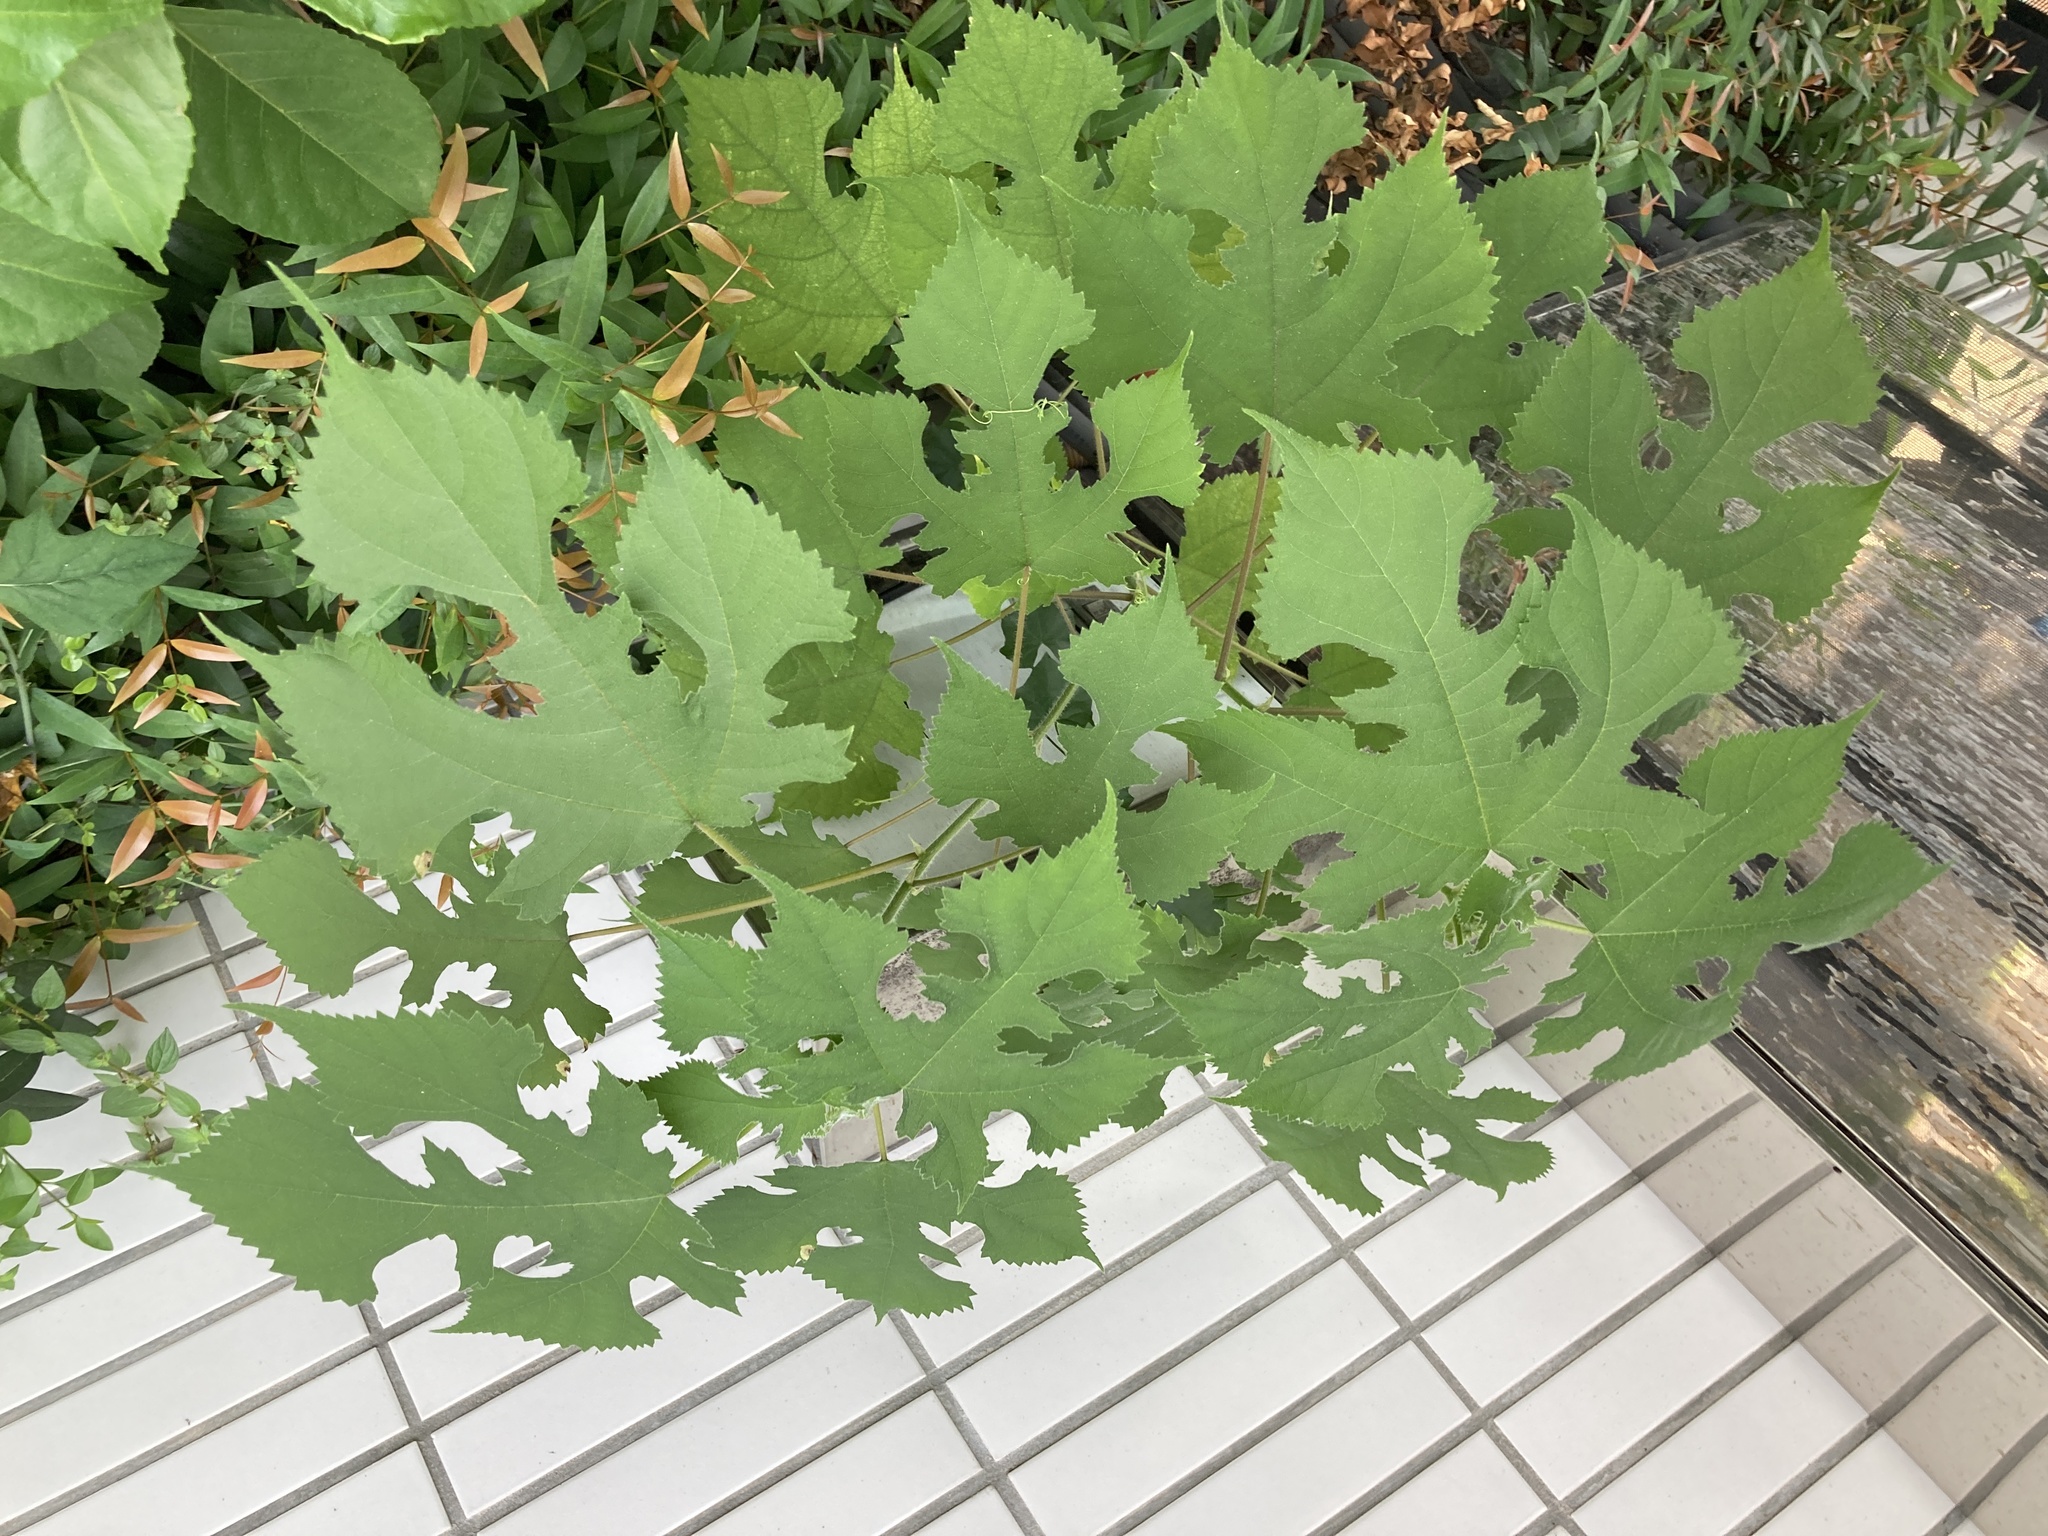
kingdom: Plantae
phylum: Tracheophyta
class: Magnoliopsida
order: Rosales
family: Moraceae
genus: Broussonetia
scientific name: Broussonetia papyrifera
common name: Paper mulberry
